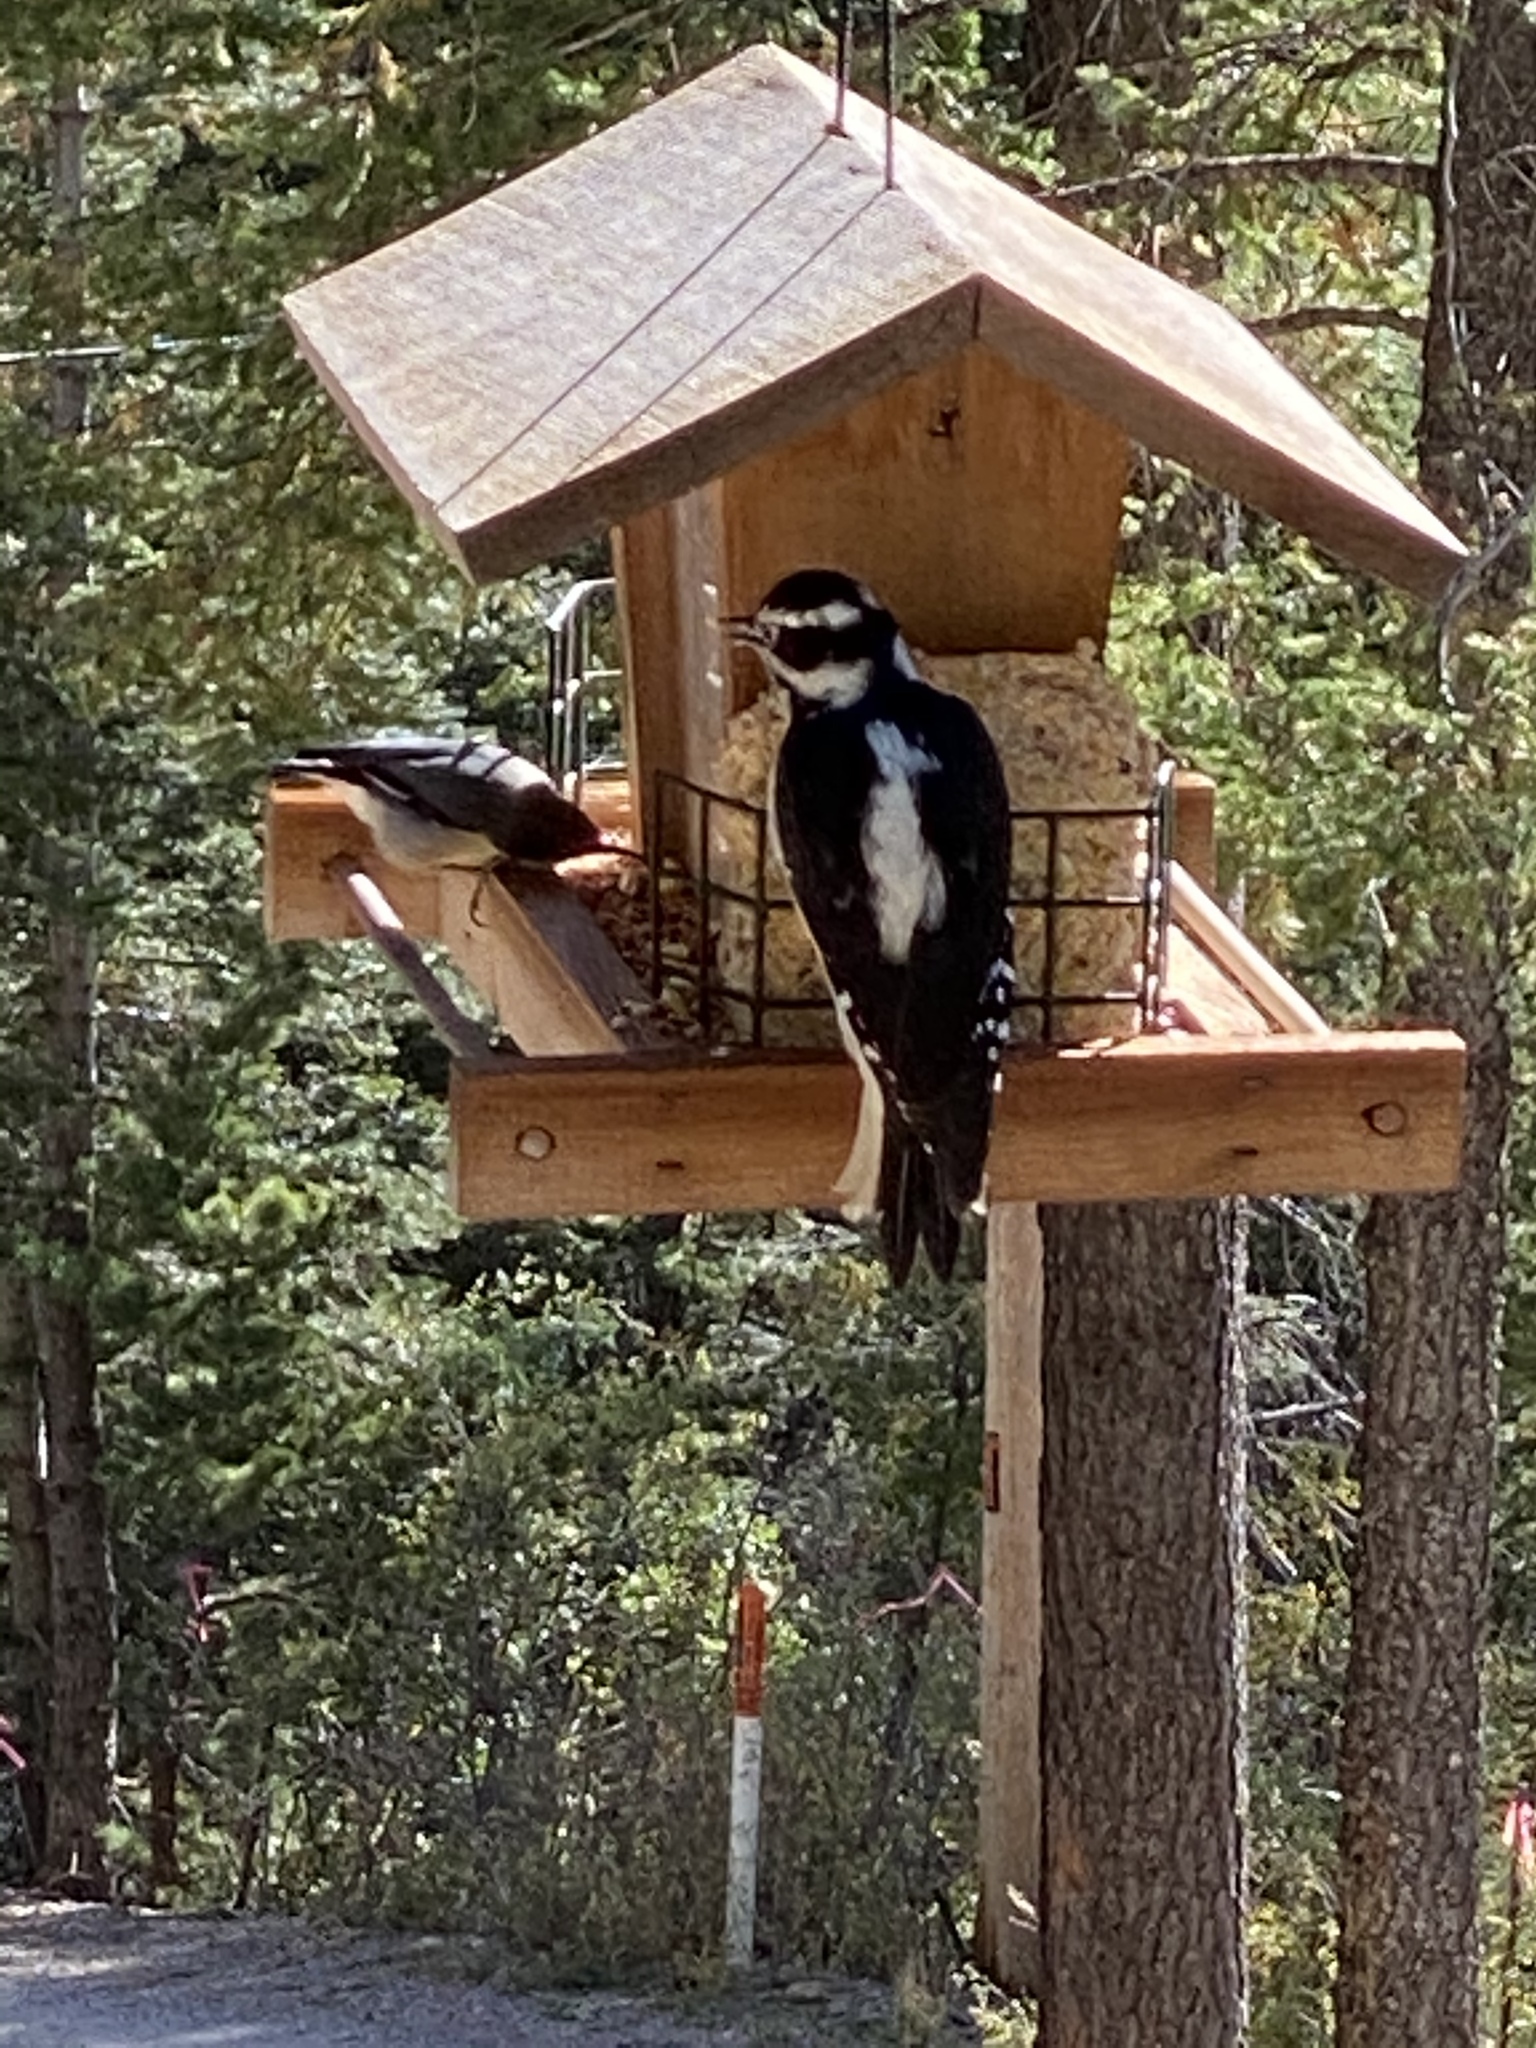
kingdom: Animalia
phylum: Chordata
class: Aves
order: Passeriformes
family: Sittidae
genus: Sitta
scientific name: Sitta pygmaea
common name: Pygmy nuthatch
